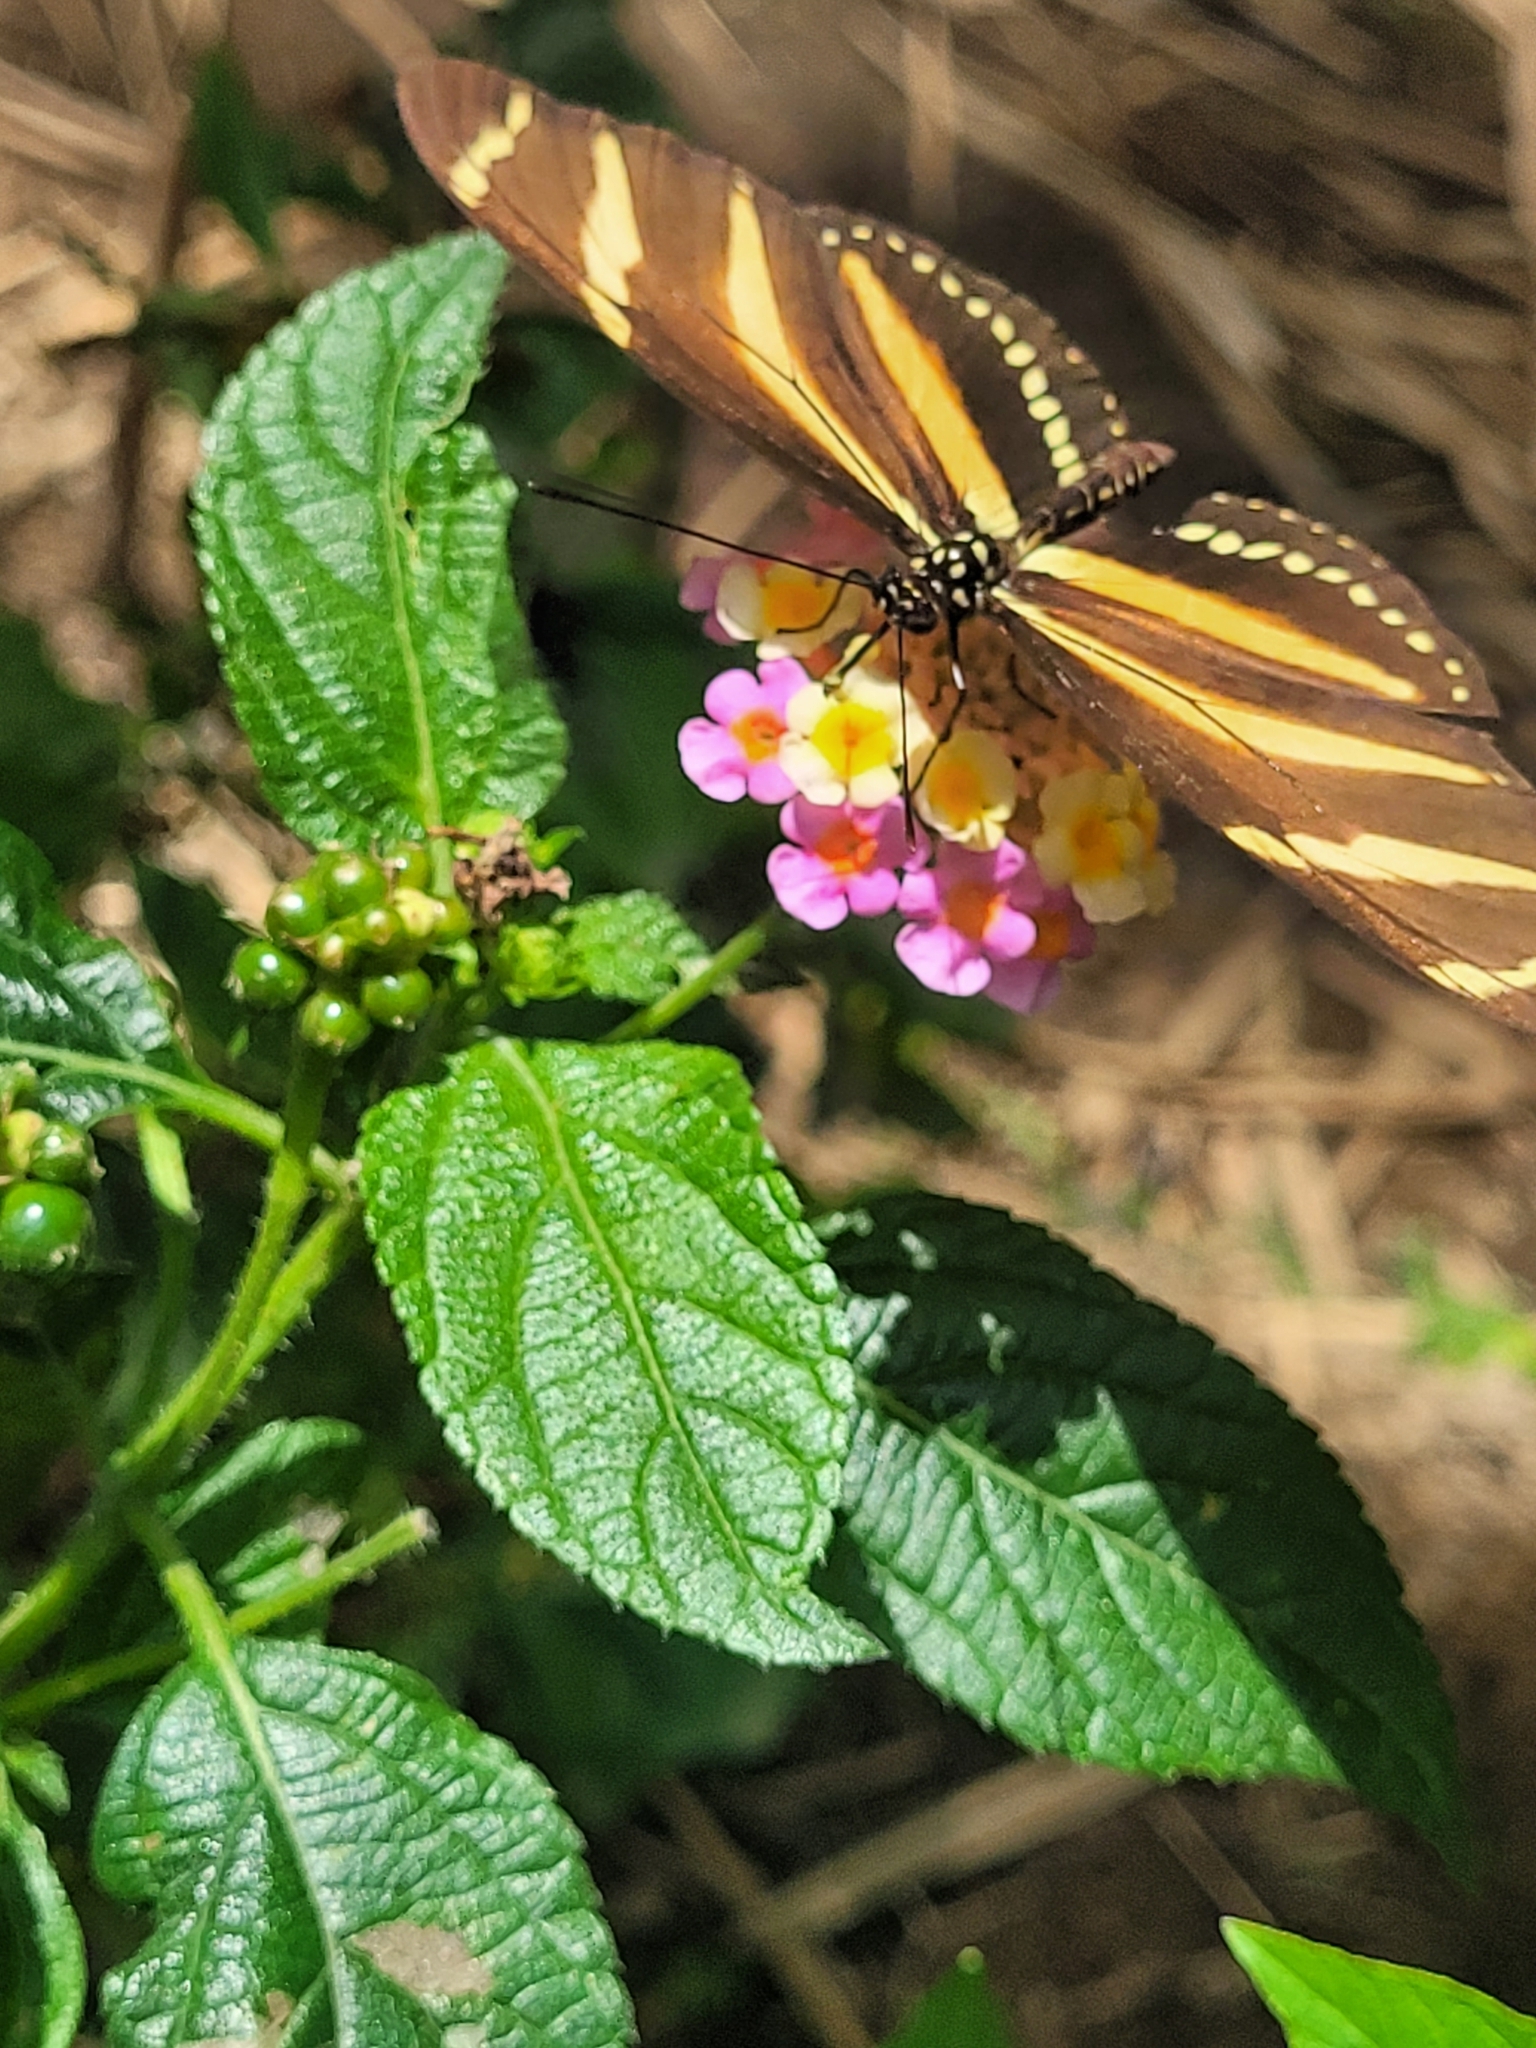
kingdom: Animalia
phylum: Arthropoda
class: Insecta
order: Lepidoptera
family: Nymphalidae
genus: Heliconius
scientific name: Heliconius charithonia
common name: Zebra long wing
